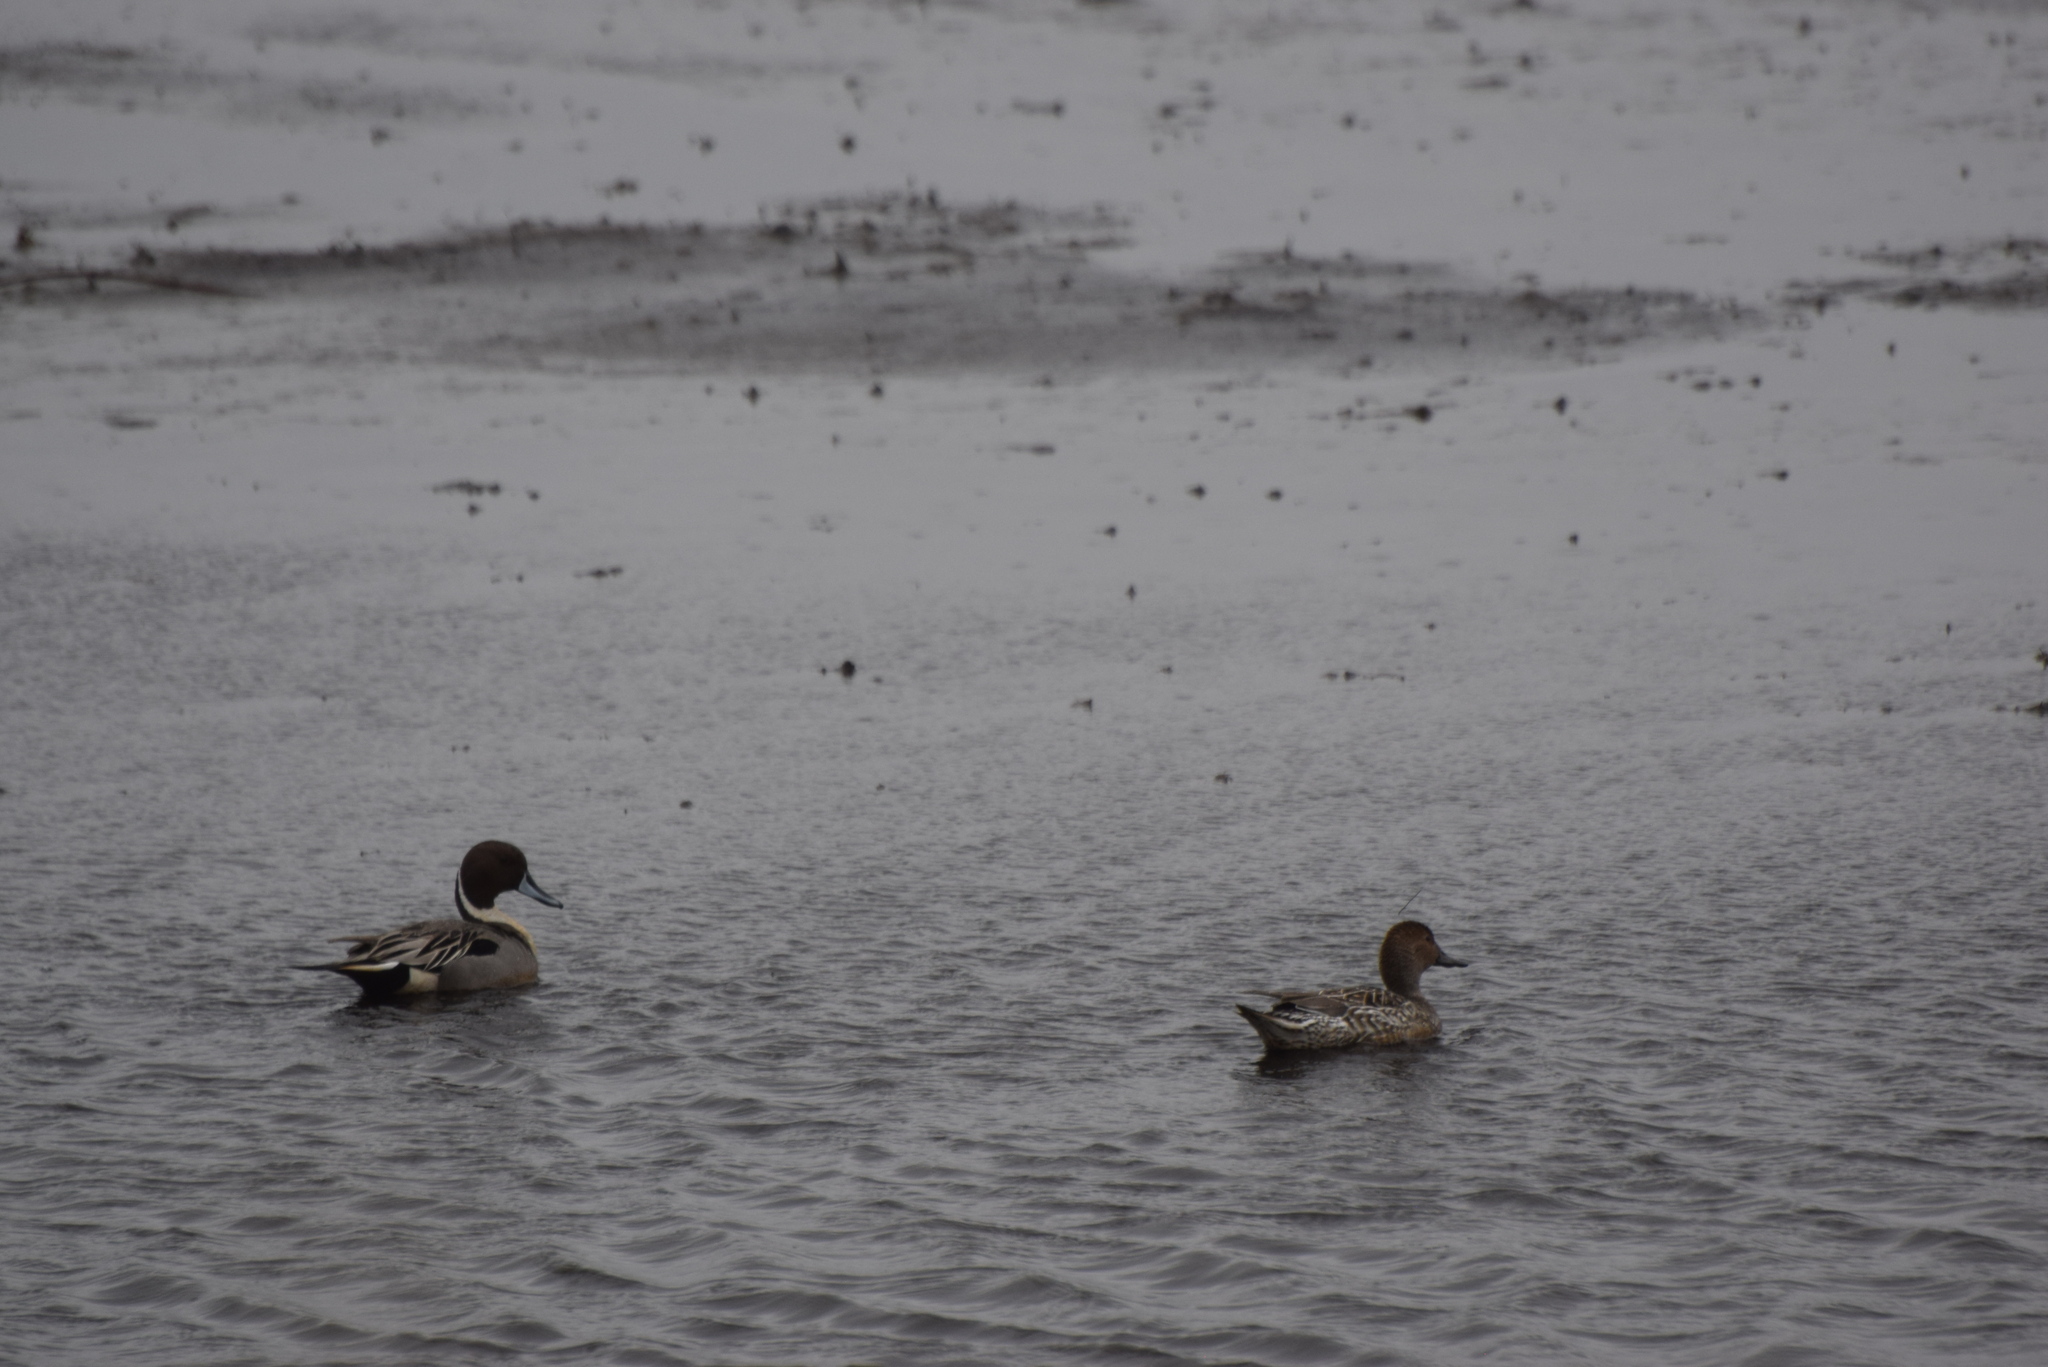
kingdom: Animalia
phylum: Chordata
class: Aves
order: Anseriformes
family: Anatidae
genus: Anas
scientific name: Anas acuta
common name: Northern pintail
